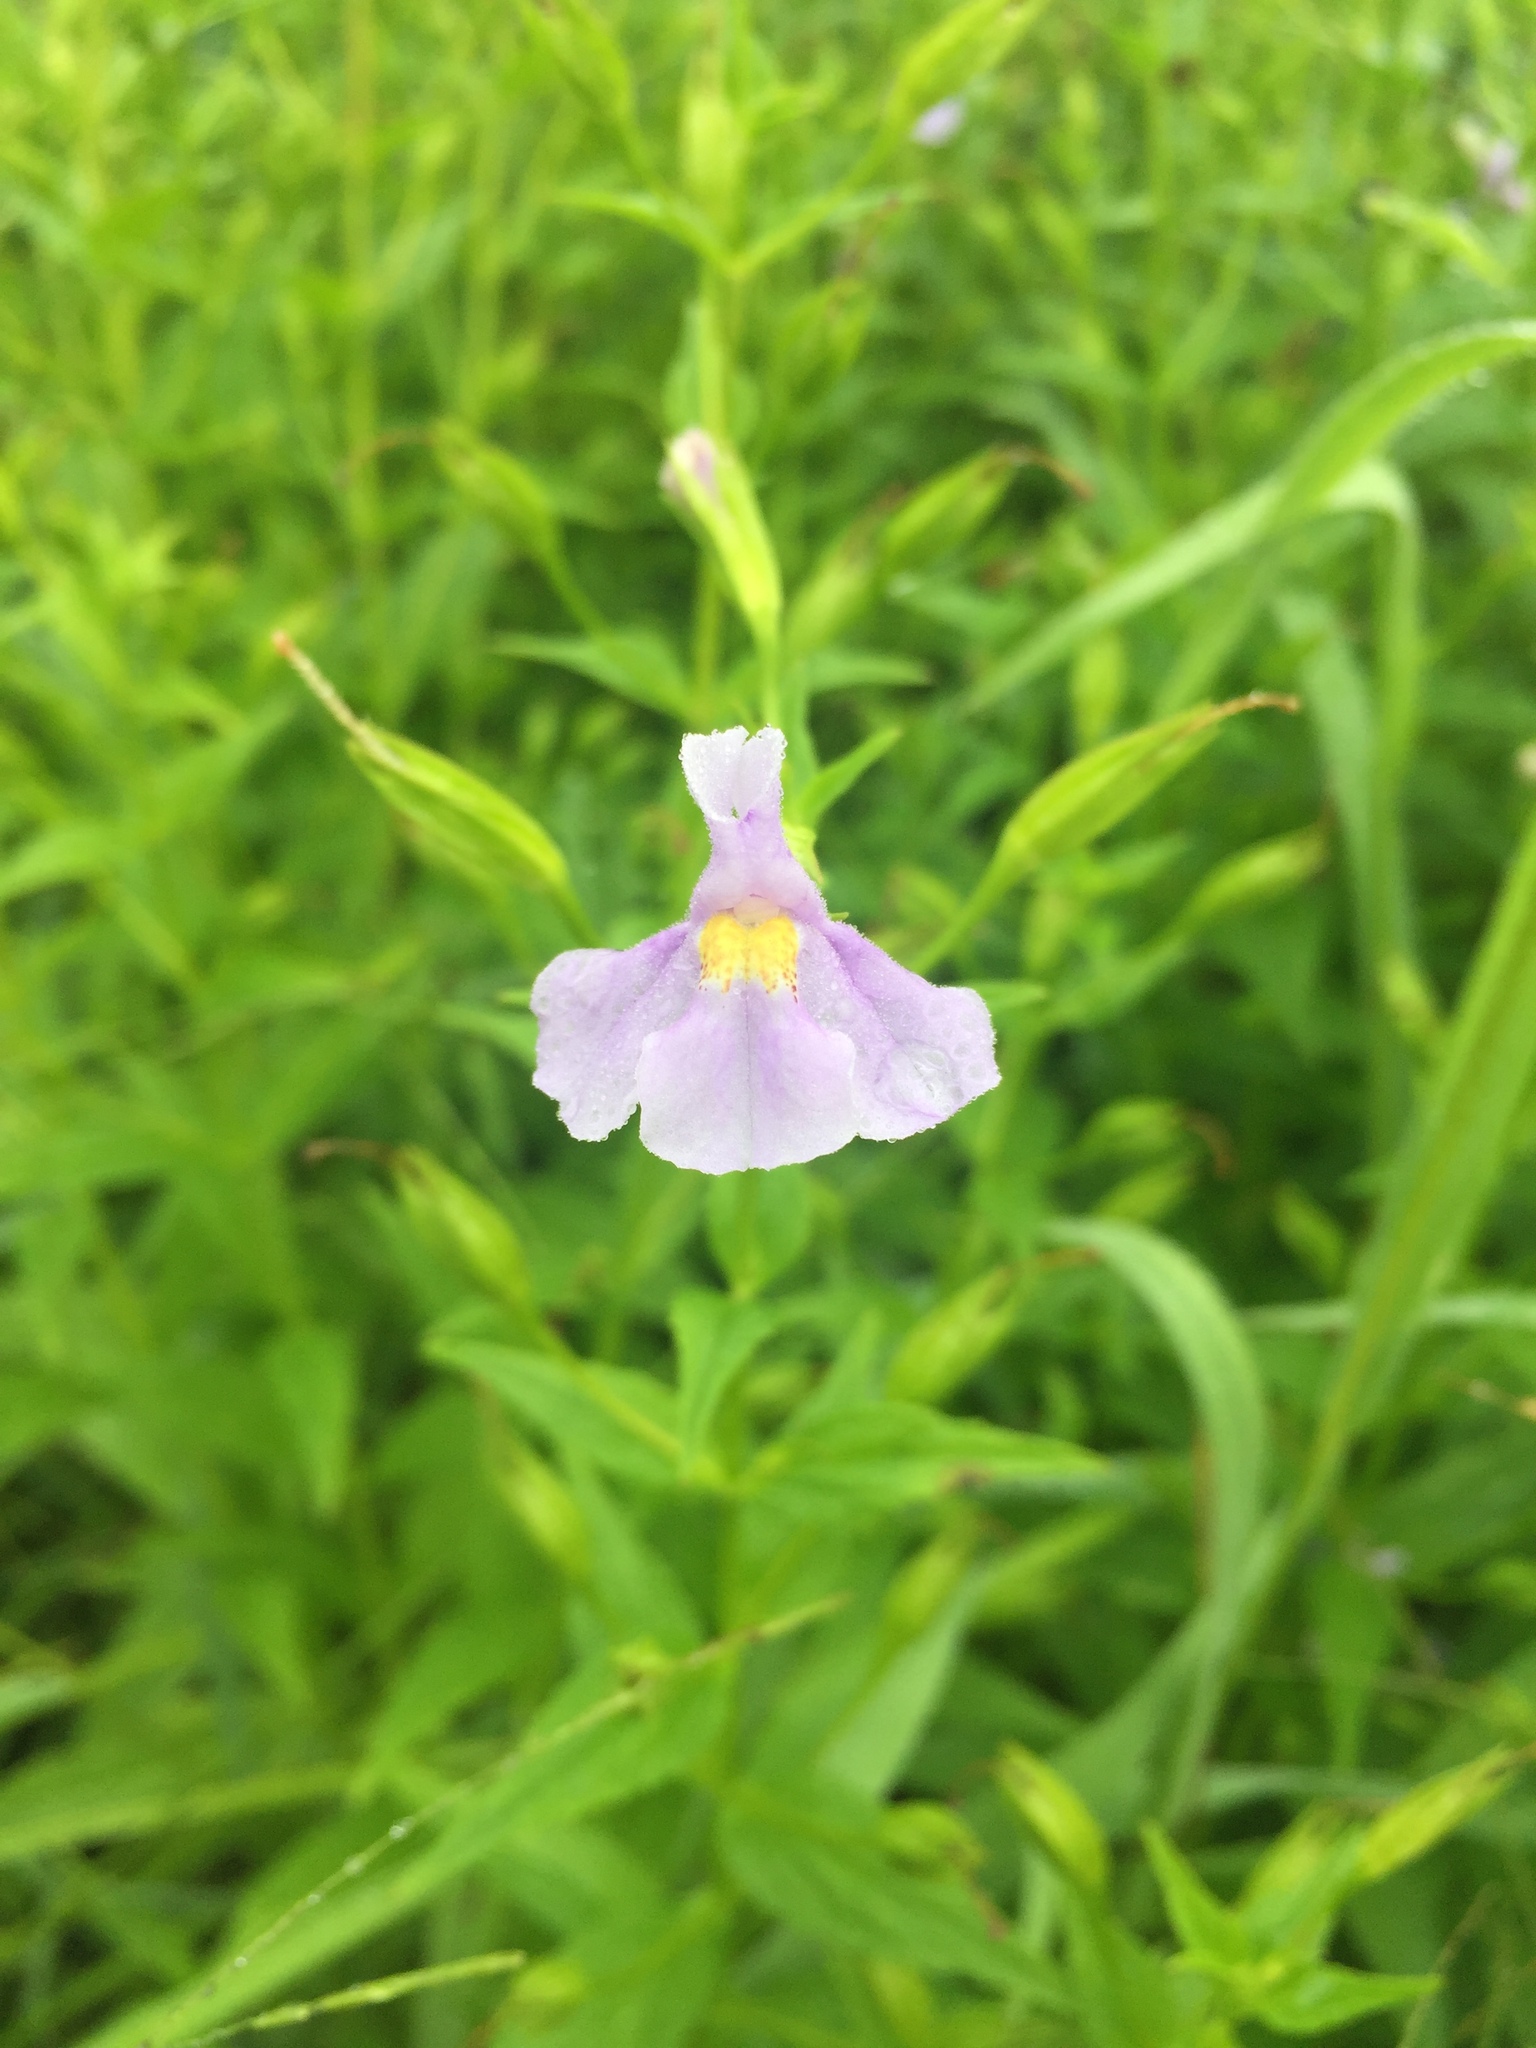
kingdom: Plantae
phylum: Tracheophyta
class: Magnoliopsida
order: Lamiales
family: Phrymaceae
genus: Mimulus
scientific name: Mimulus ringens
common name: Allegheny monkeyflower
